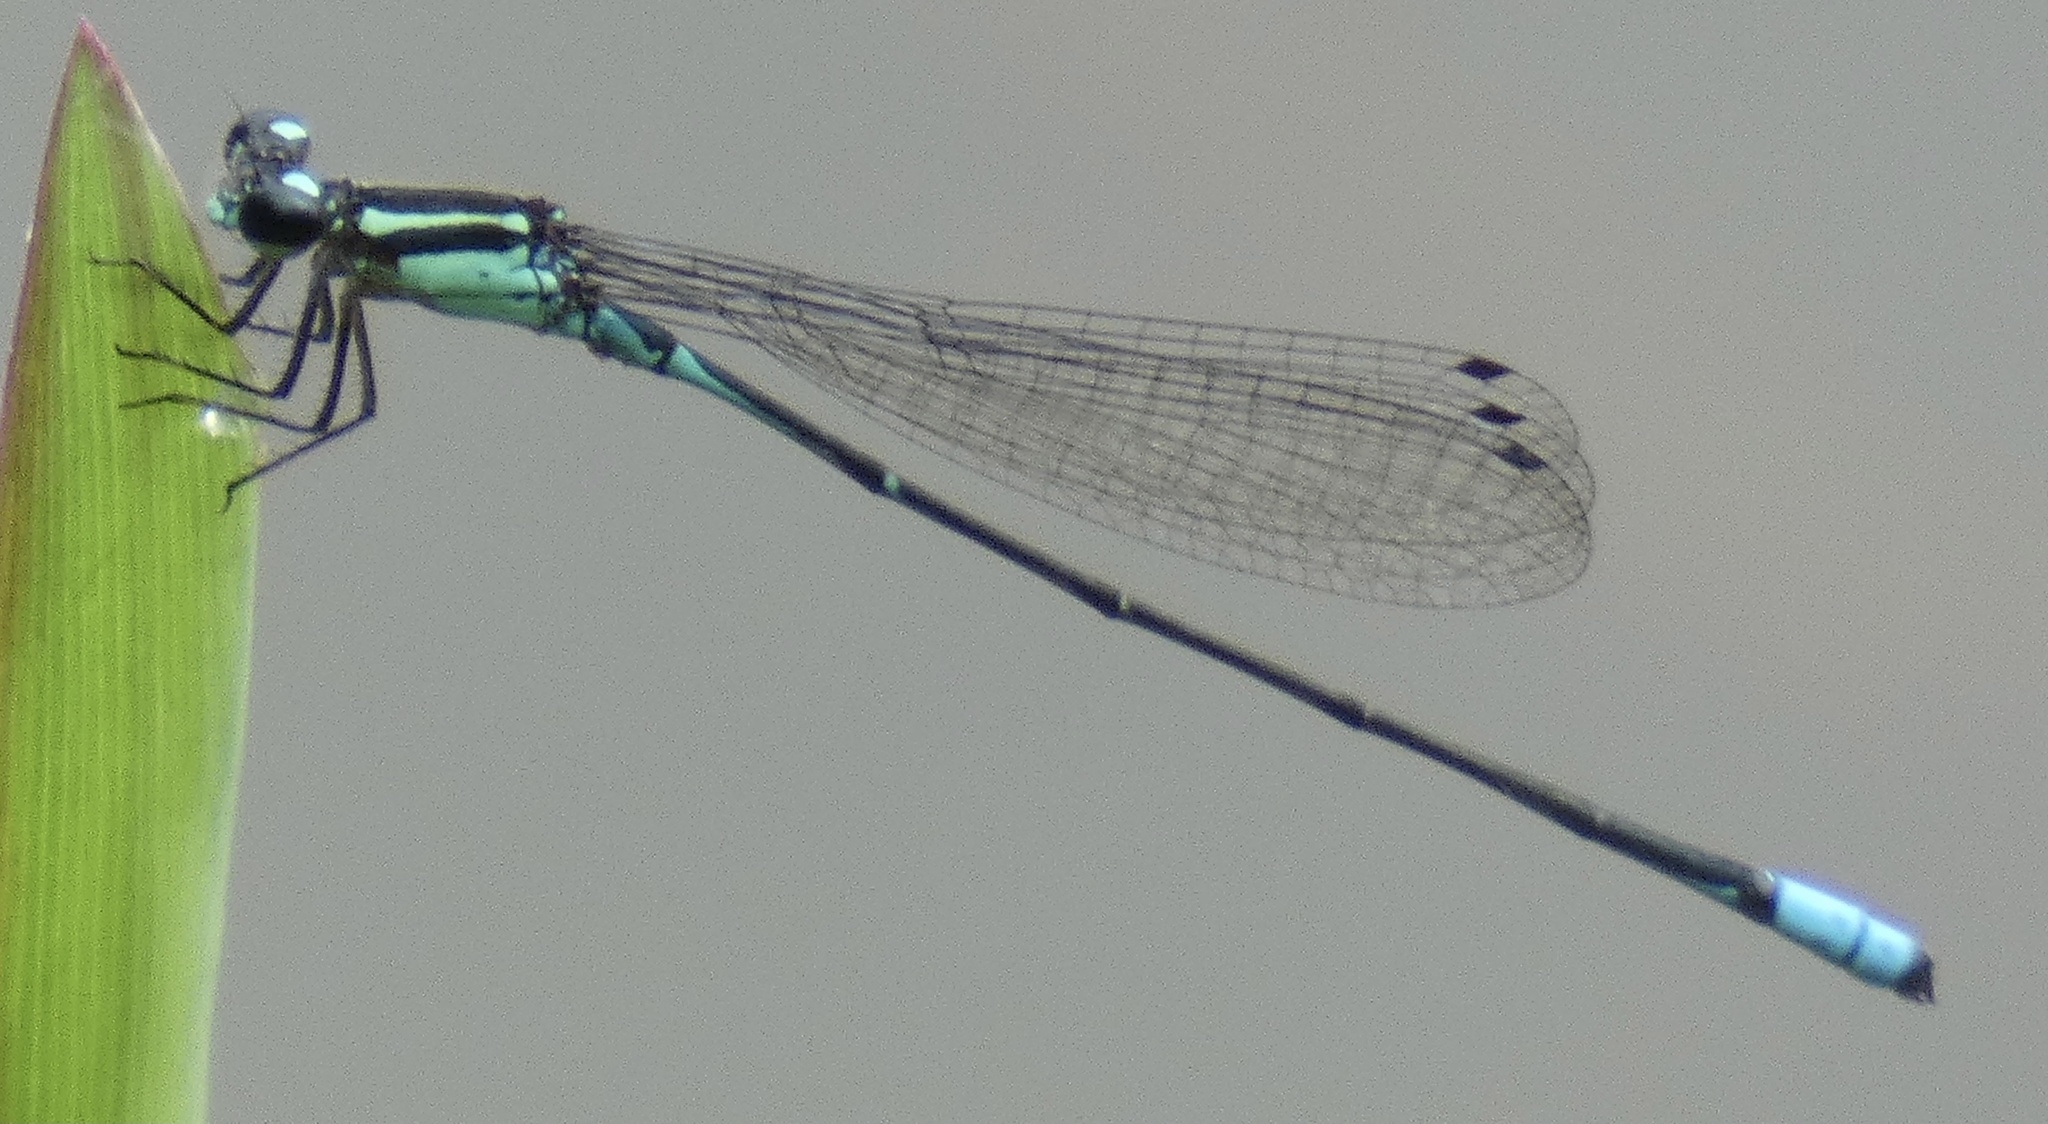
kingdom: Animalia
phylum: Arthropoda
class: Insecta
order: Odonata
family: Coenagrionidae
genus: Acanthagrion
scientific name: Acanthagrion lancea
